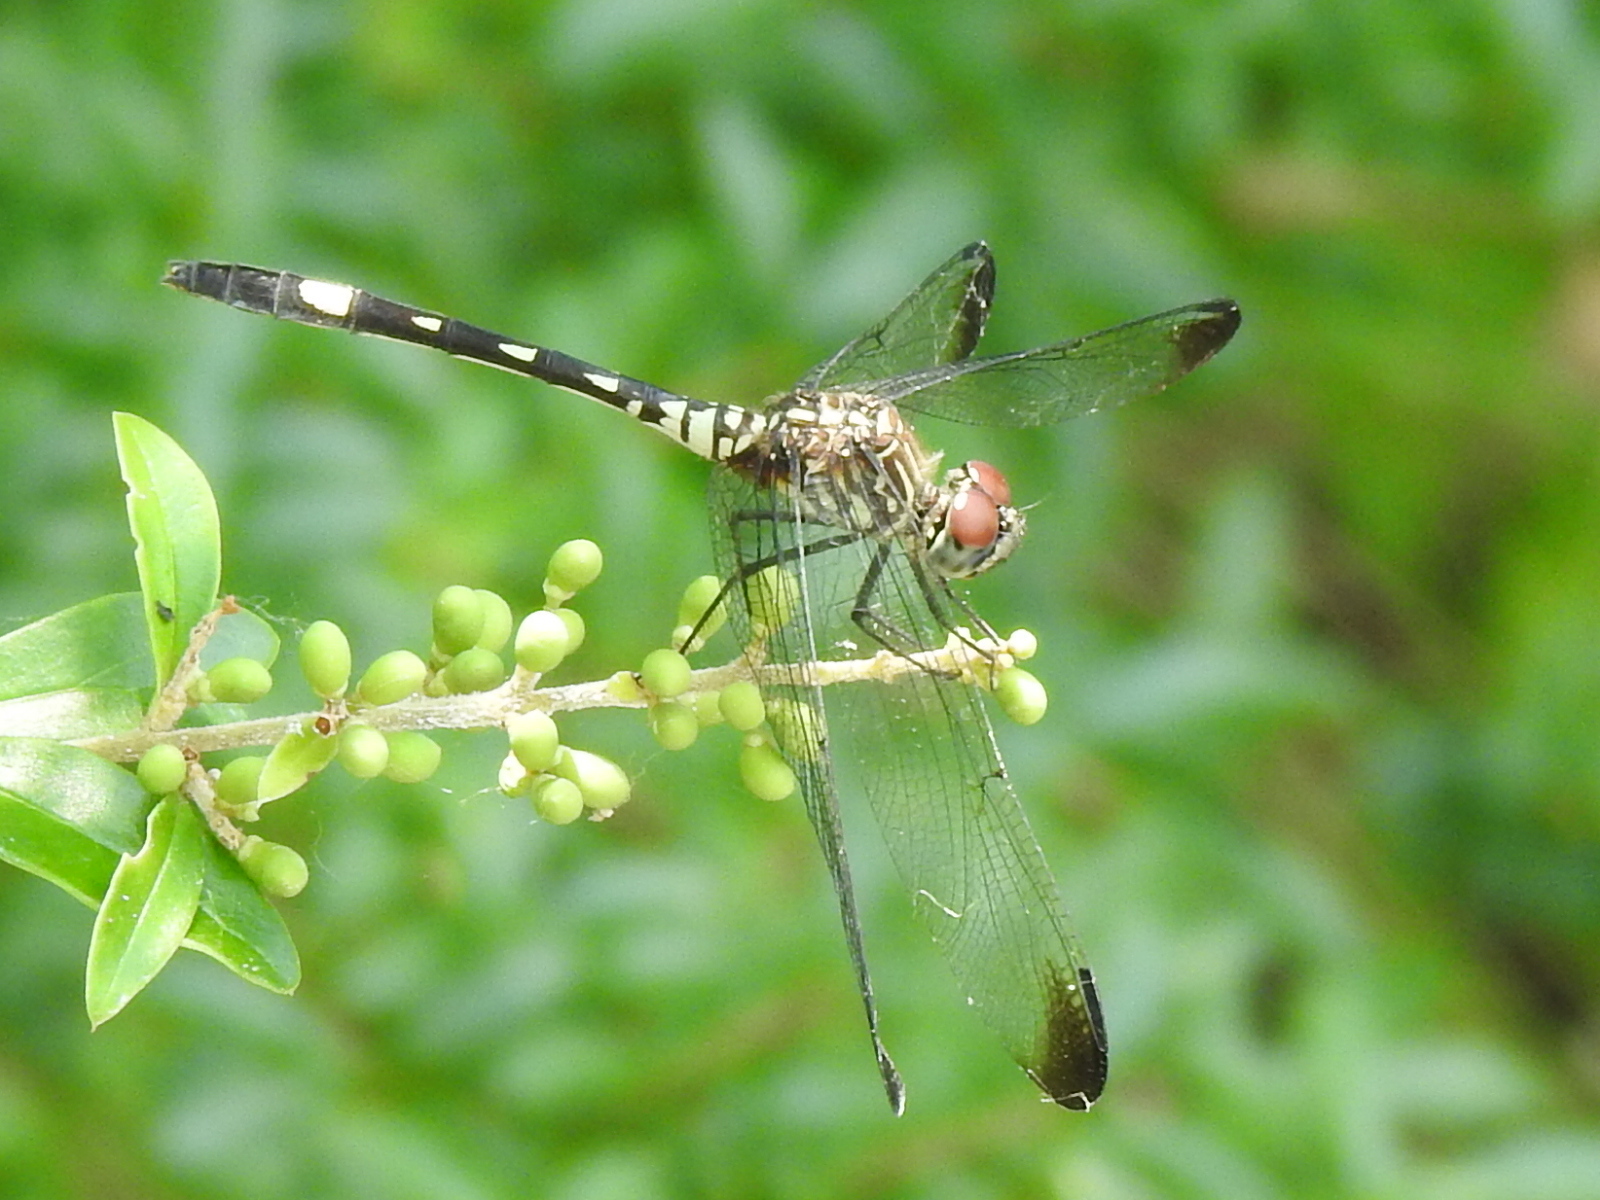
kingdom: Animalia
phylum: Arthropoda
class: Insecta
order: Odonata
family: Libellulidae
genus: Dythemis
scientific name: Dythemis velox
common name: Swift setwing
